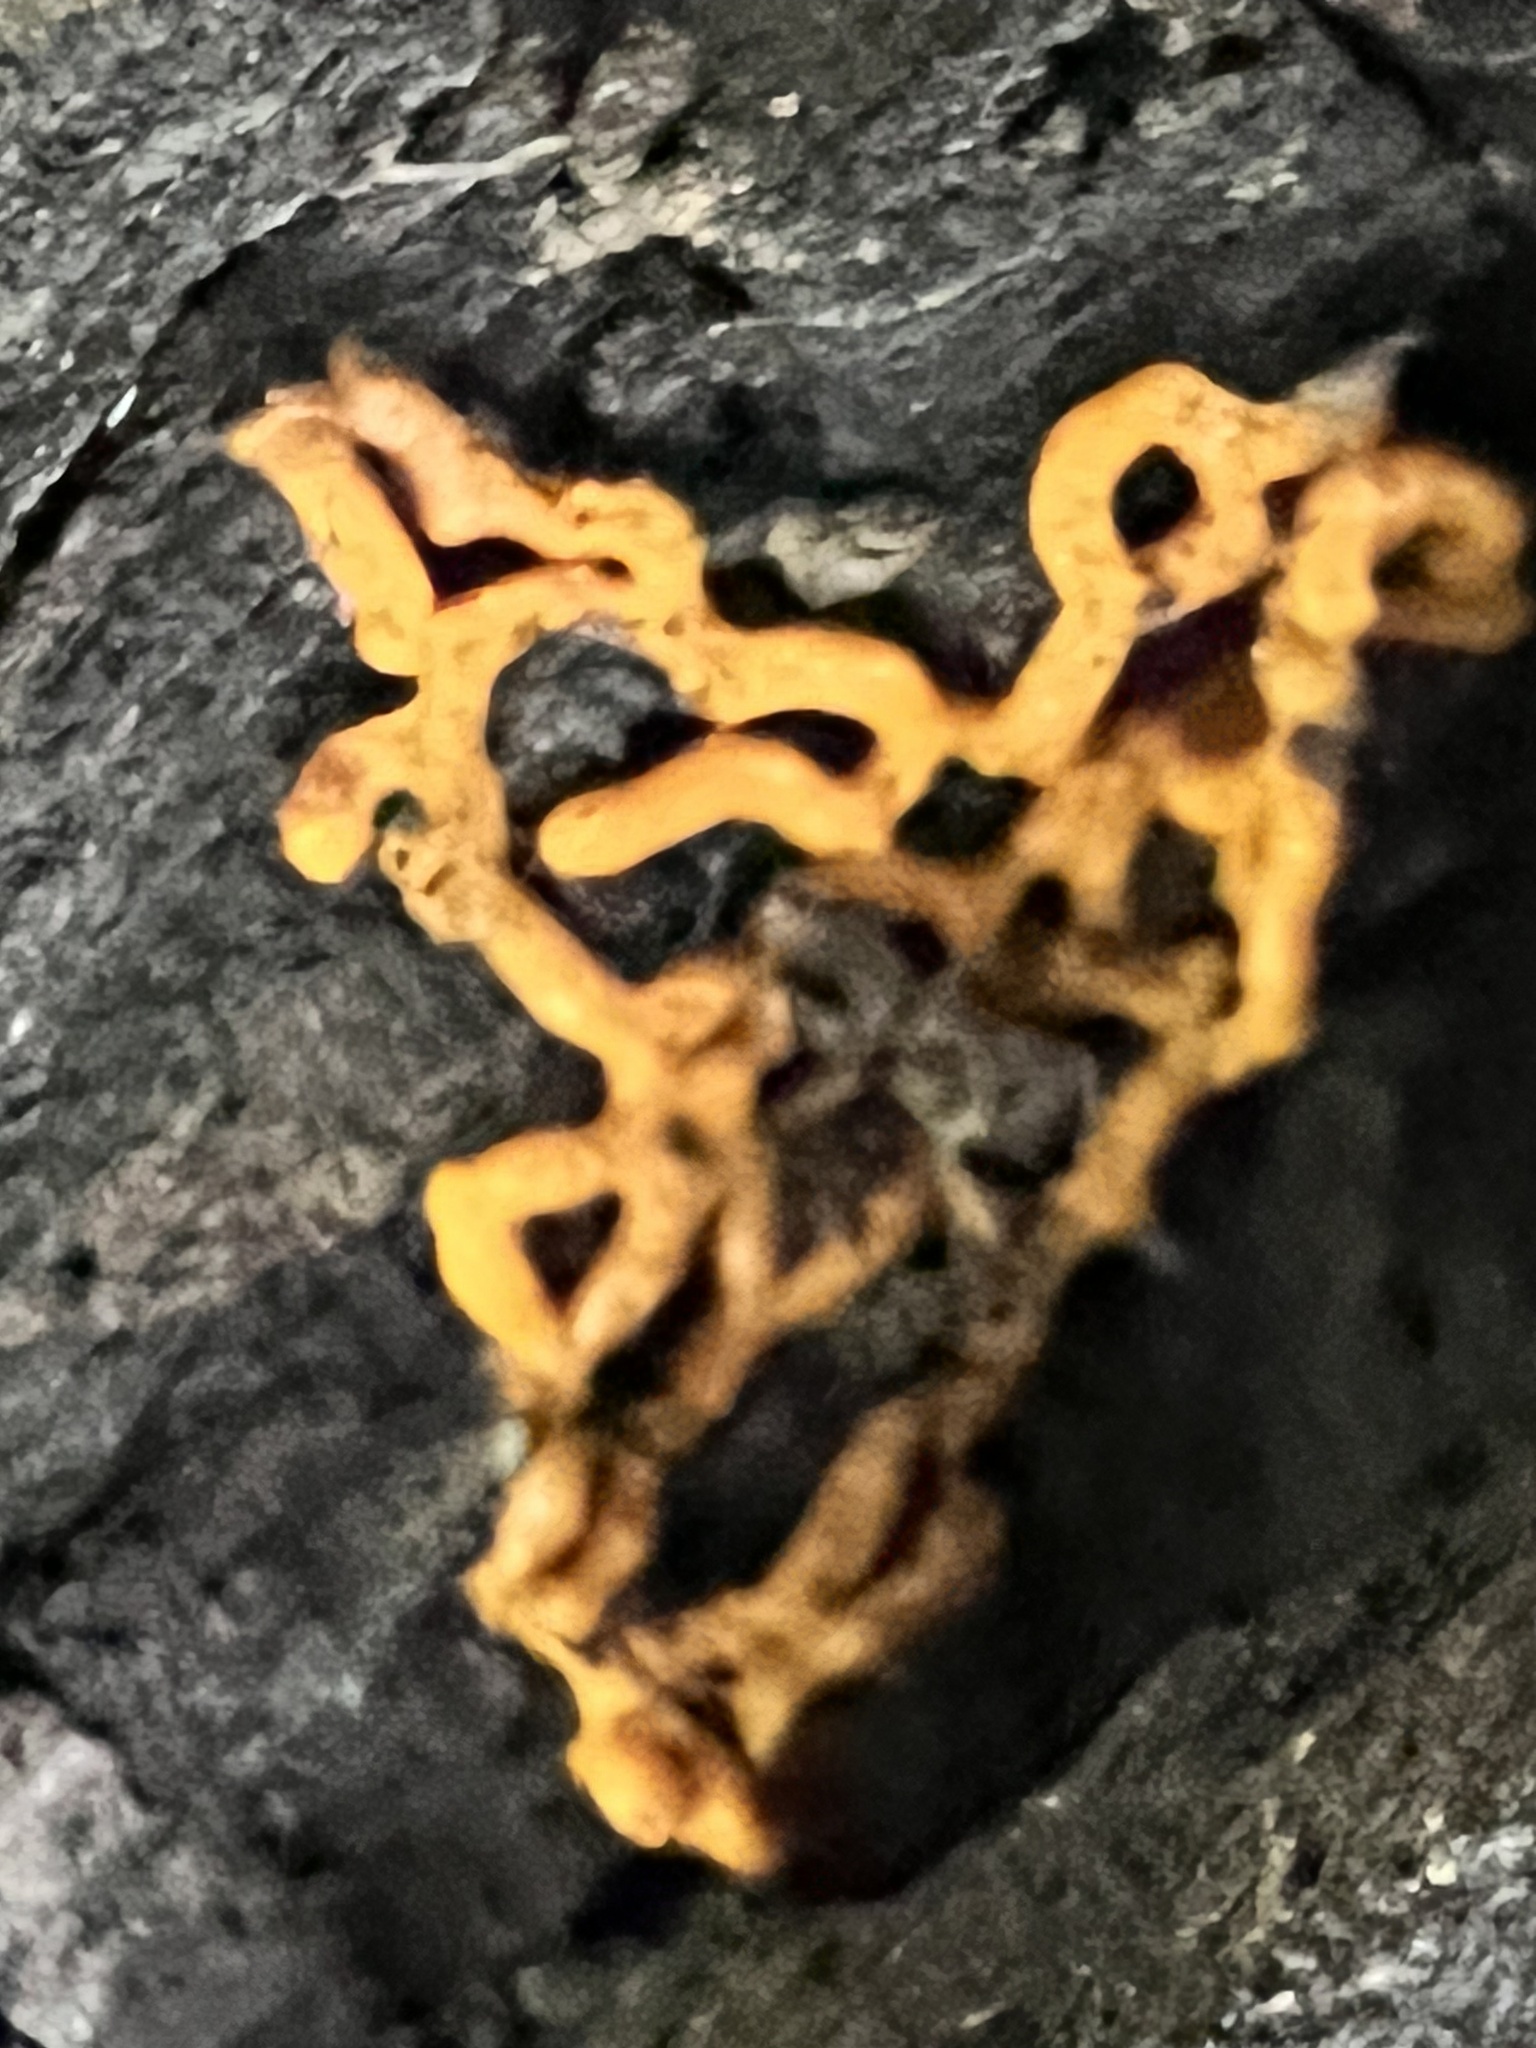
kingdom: Protozoa
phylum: Mycetozoa
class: Myxomycetes
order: Trichiales
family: Arcyriaceae
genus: Hemitrichia
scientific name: Hemitrichia serpula
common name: Pretzel slime mold
